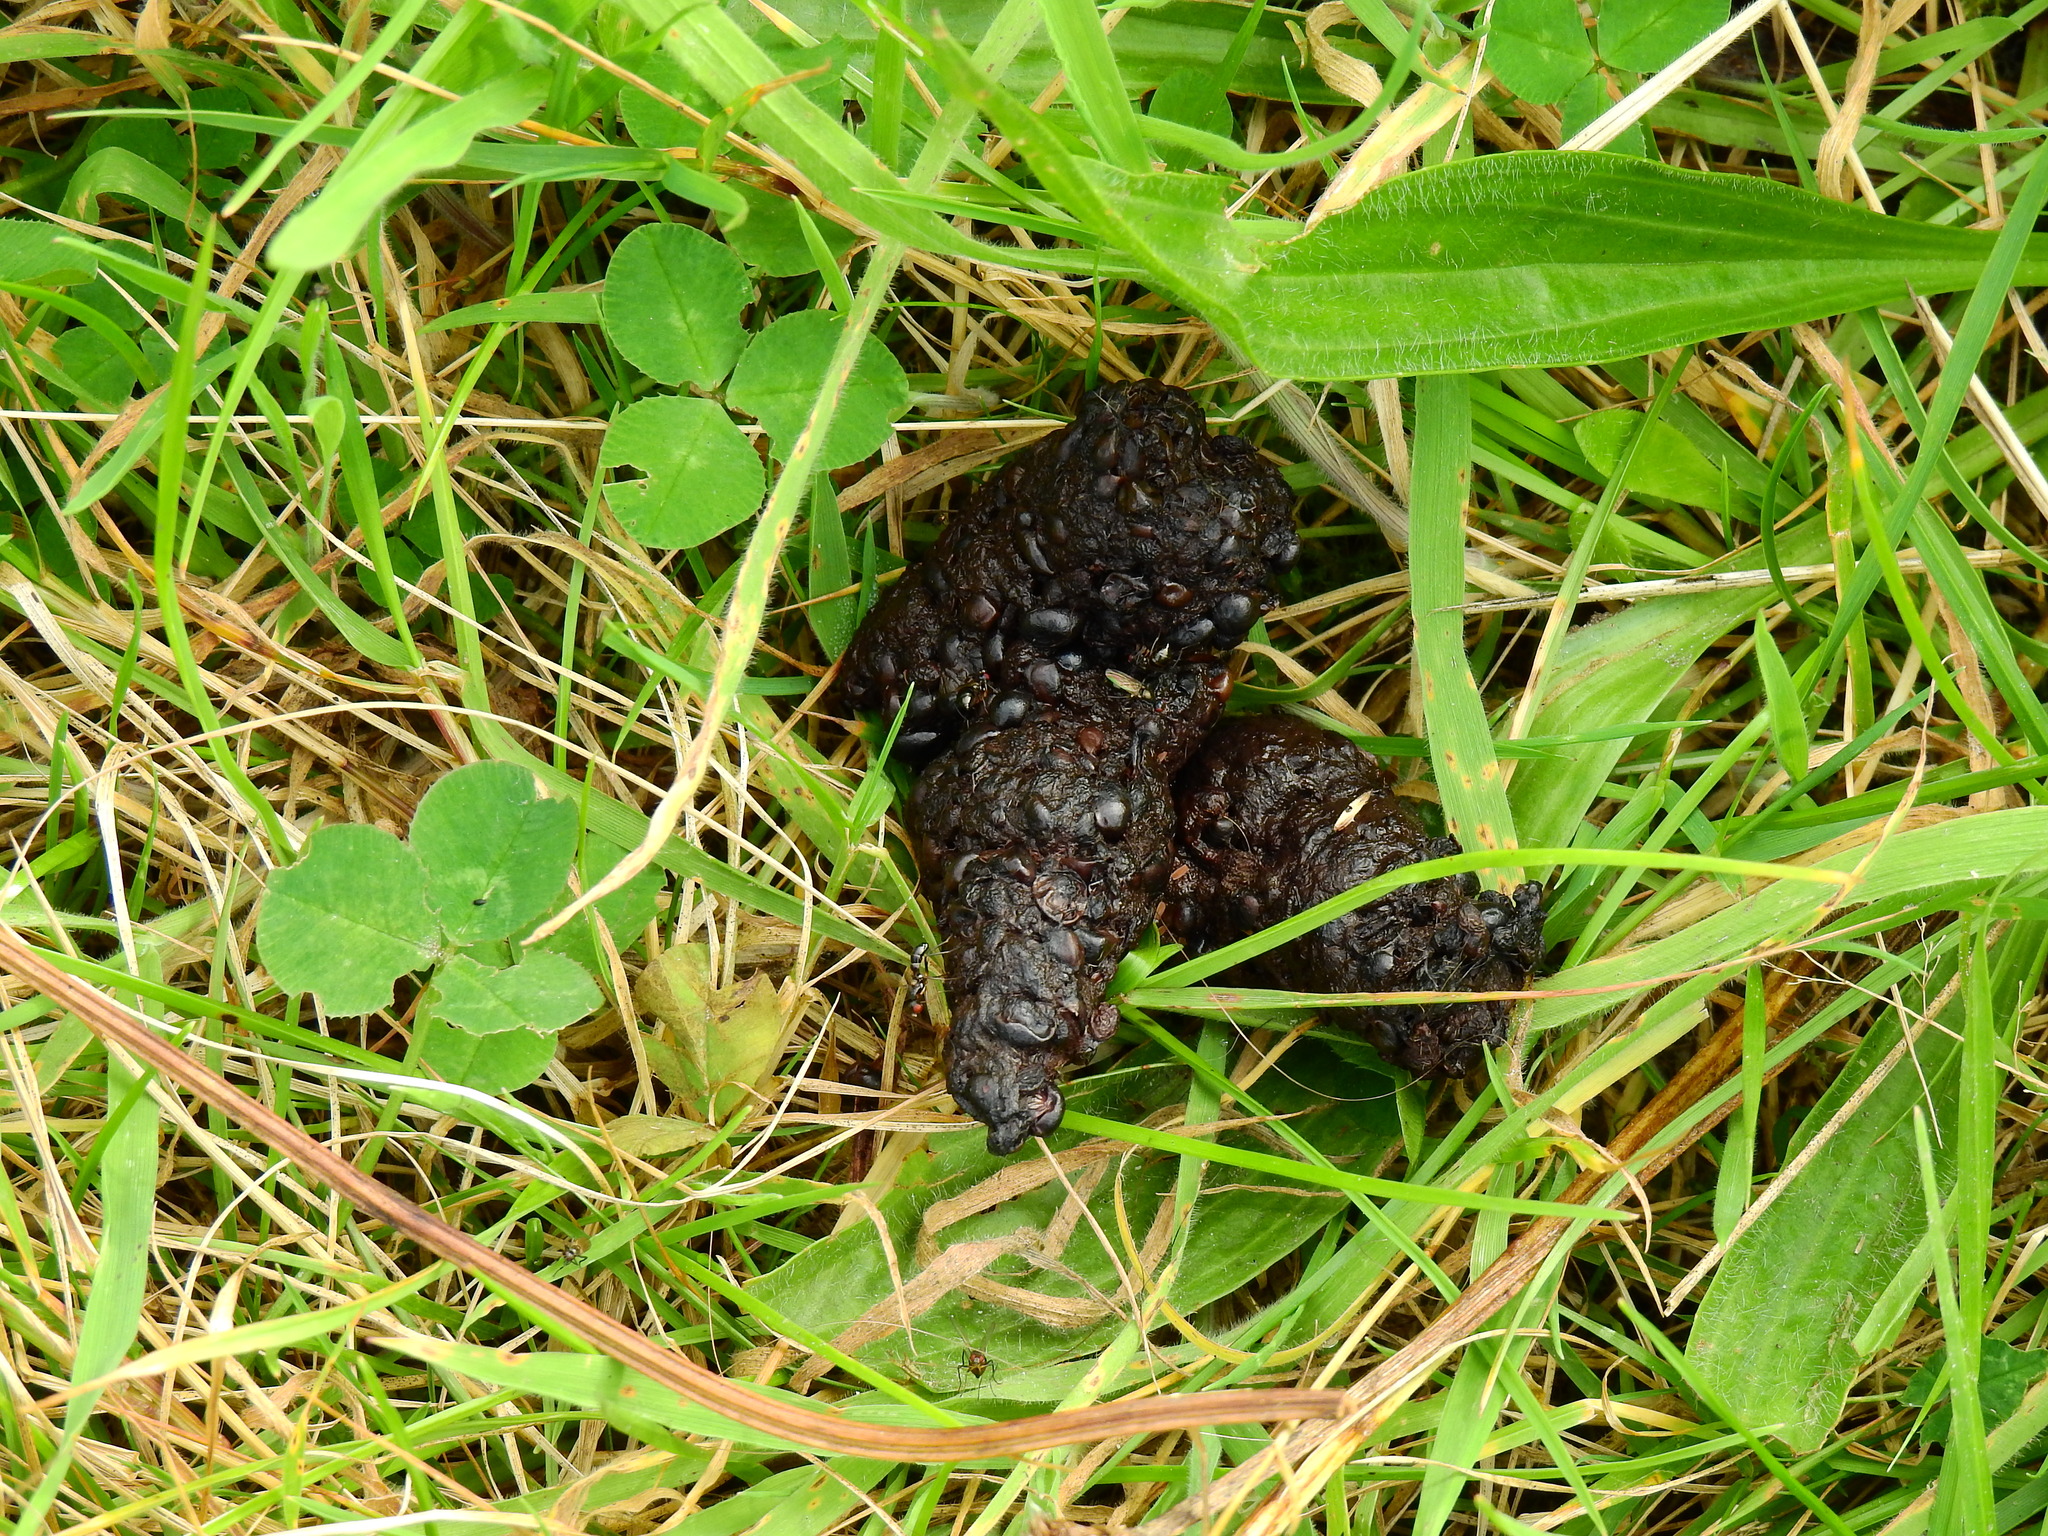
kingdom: Animalia
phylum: Chordata
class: Mammalia
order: Erinaceomorpha
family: Erinaceidae
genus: Erinaceus
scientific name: Erinaceus europaeus
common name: West european hedgehog
